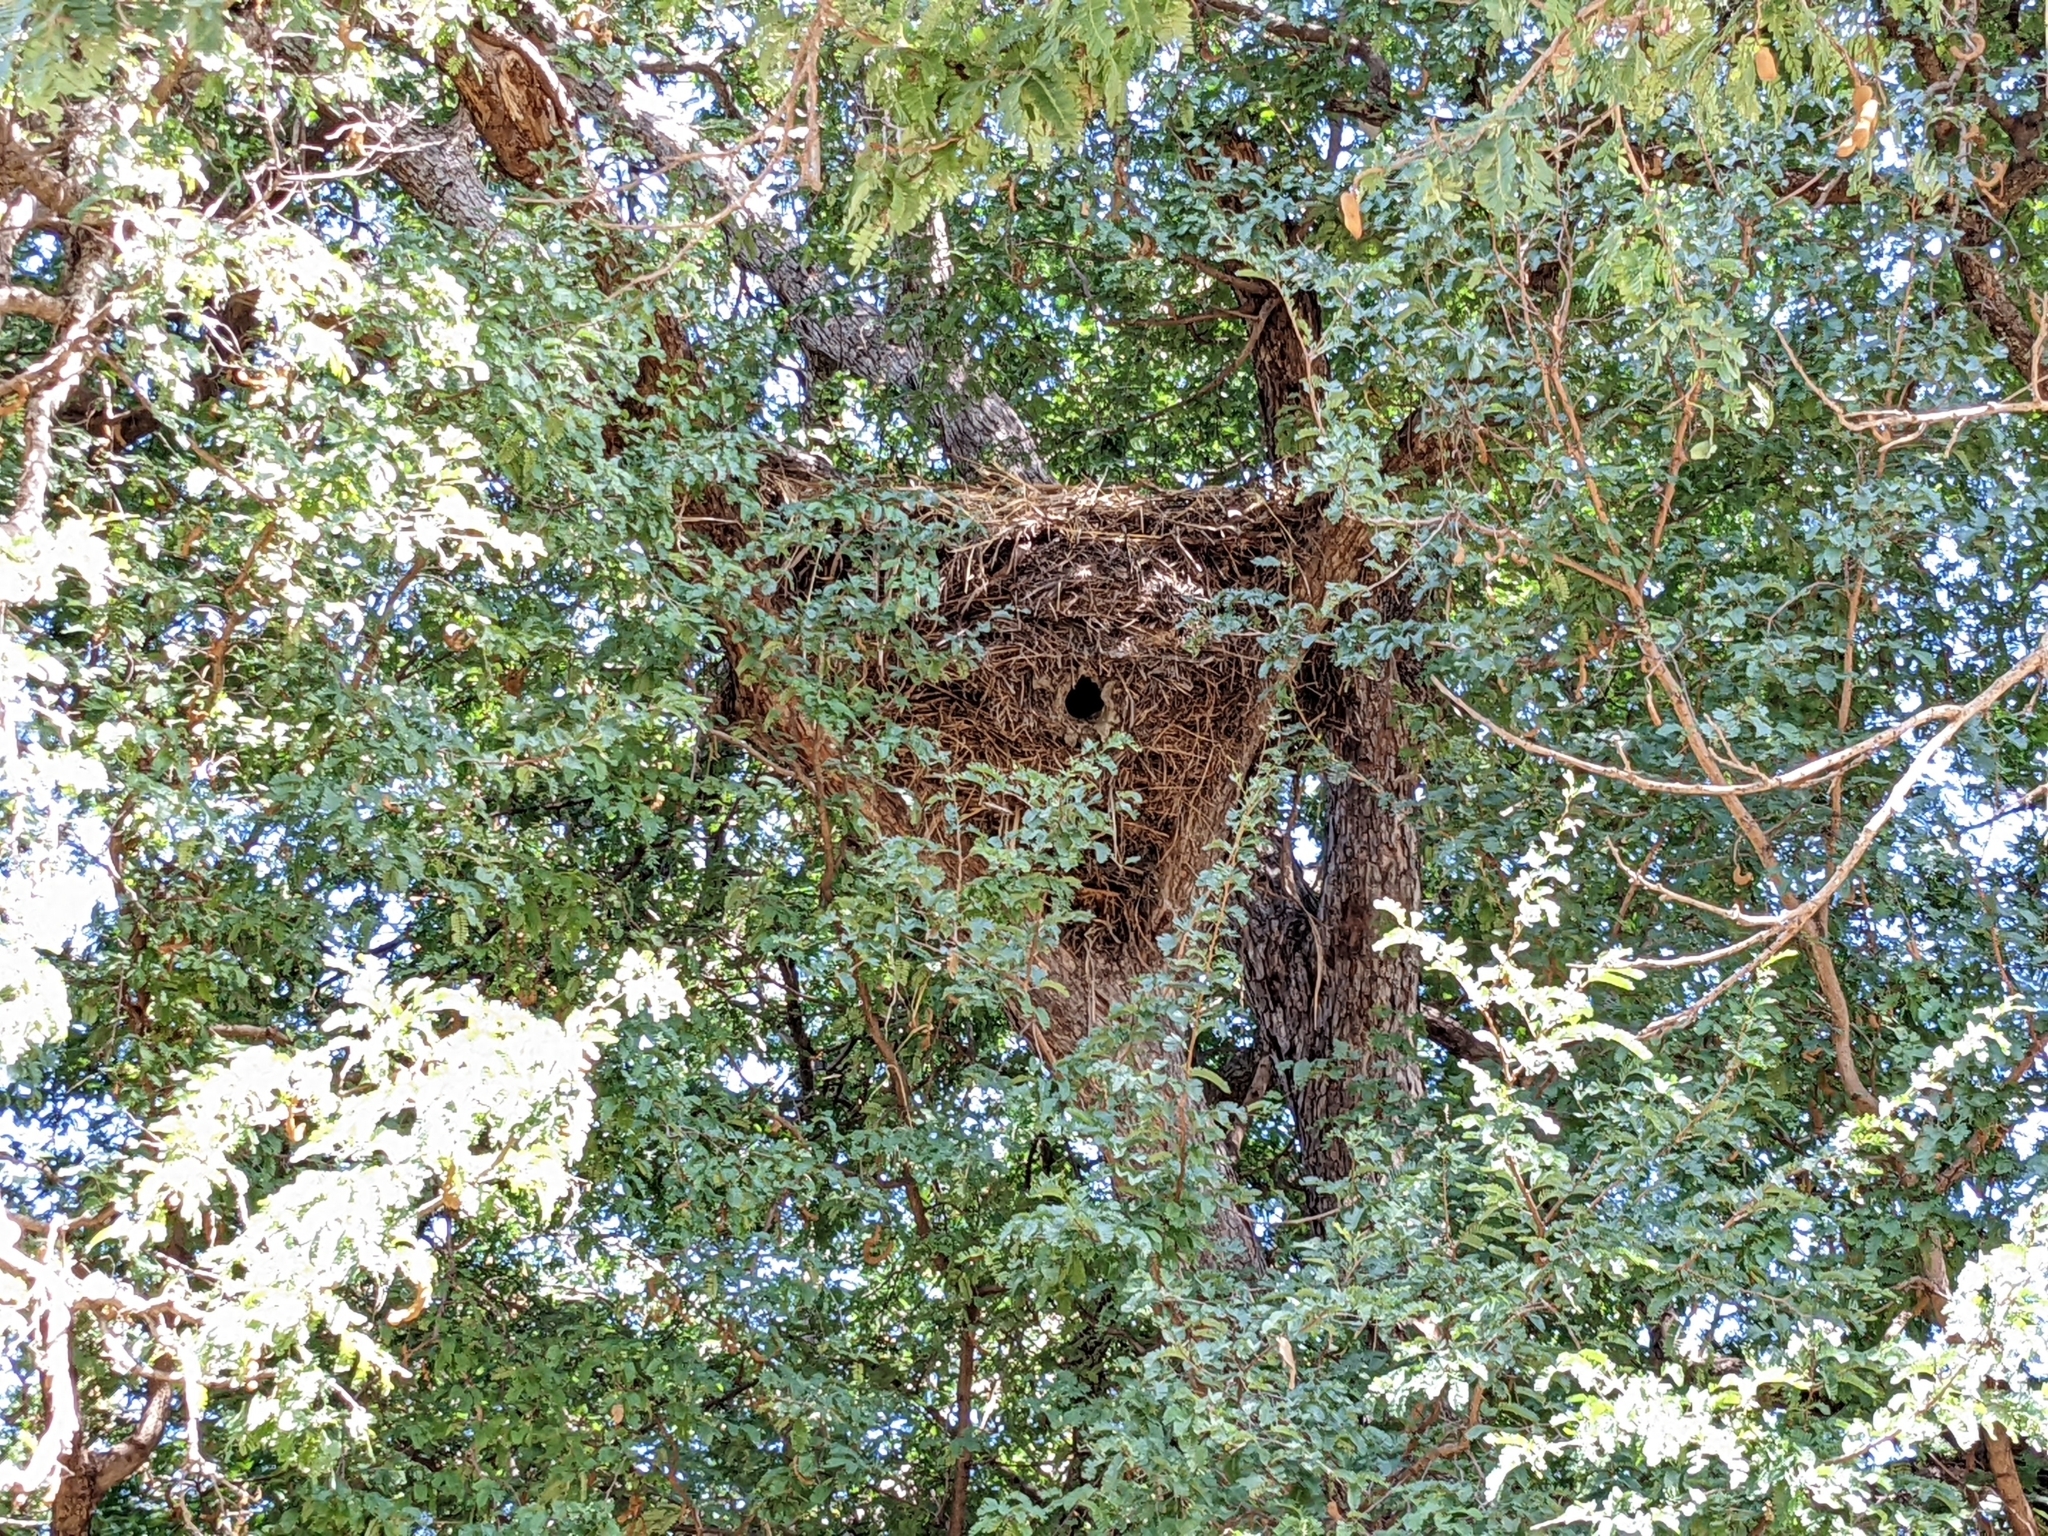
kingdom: Animalia
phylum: Chordata
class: Aves
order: Pelecaniformes
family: Scopidae
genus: Scopus
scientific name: Scopus umbretta
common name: Hamerkop
